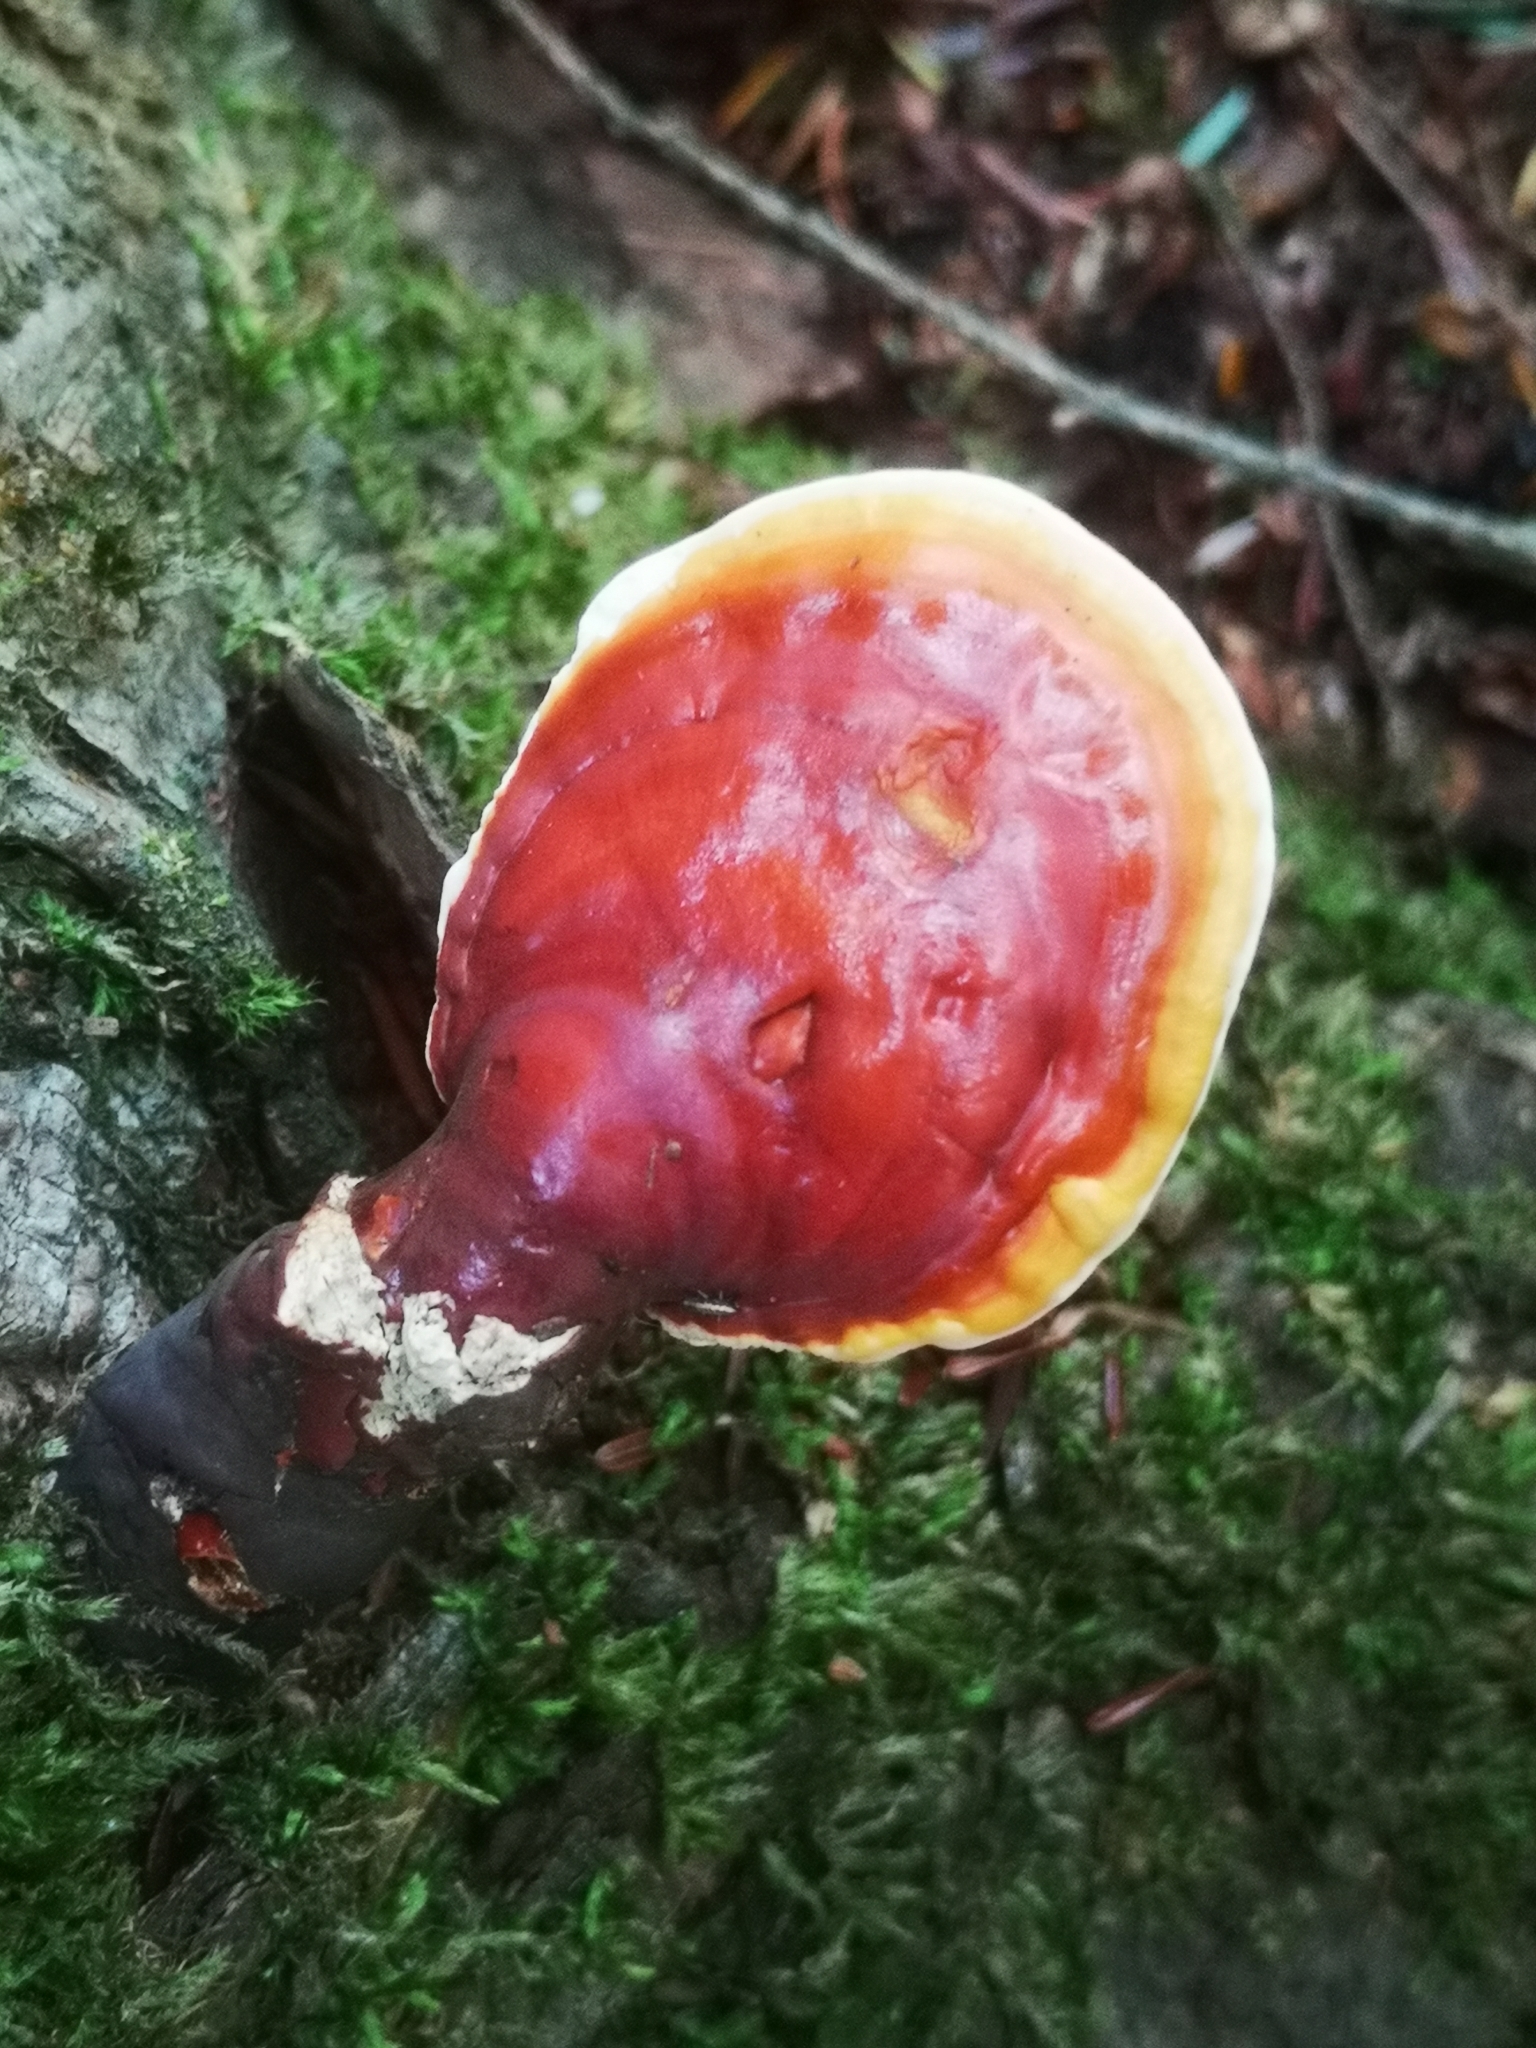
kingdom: Fungi
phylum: Basidiomycota
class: Agaricomycetes
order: Polyporales
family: Polyporaceae
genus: Ganoderma
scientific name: Ganoderma tsugae
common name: Hemlock varnish shelf
